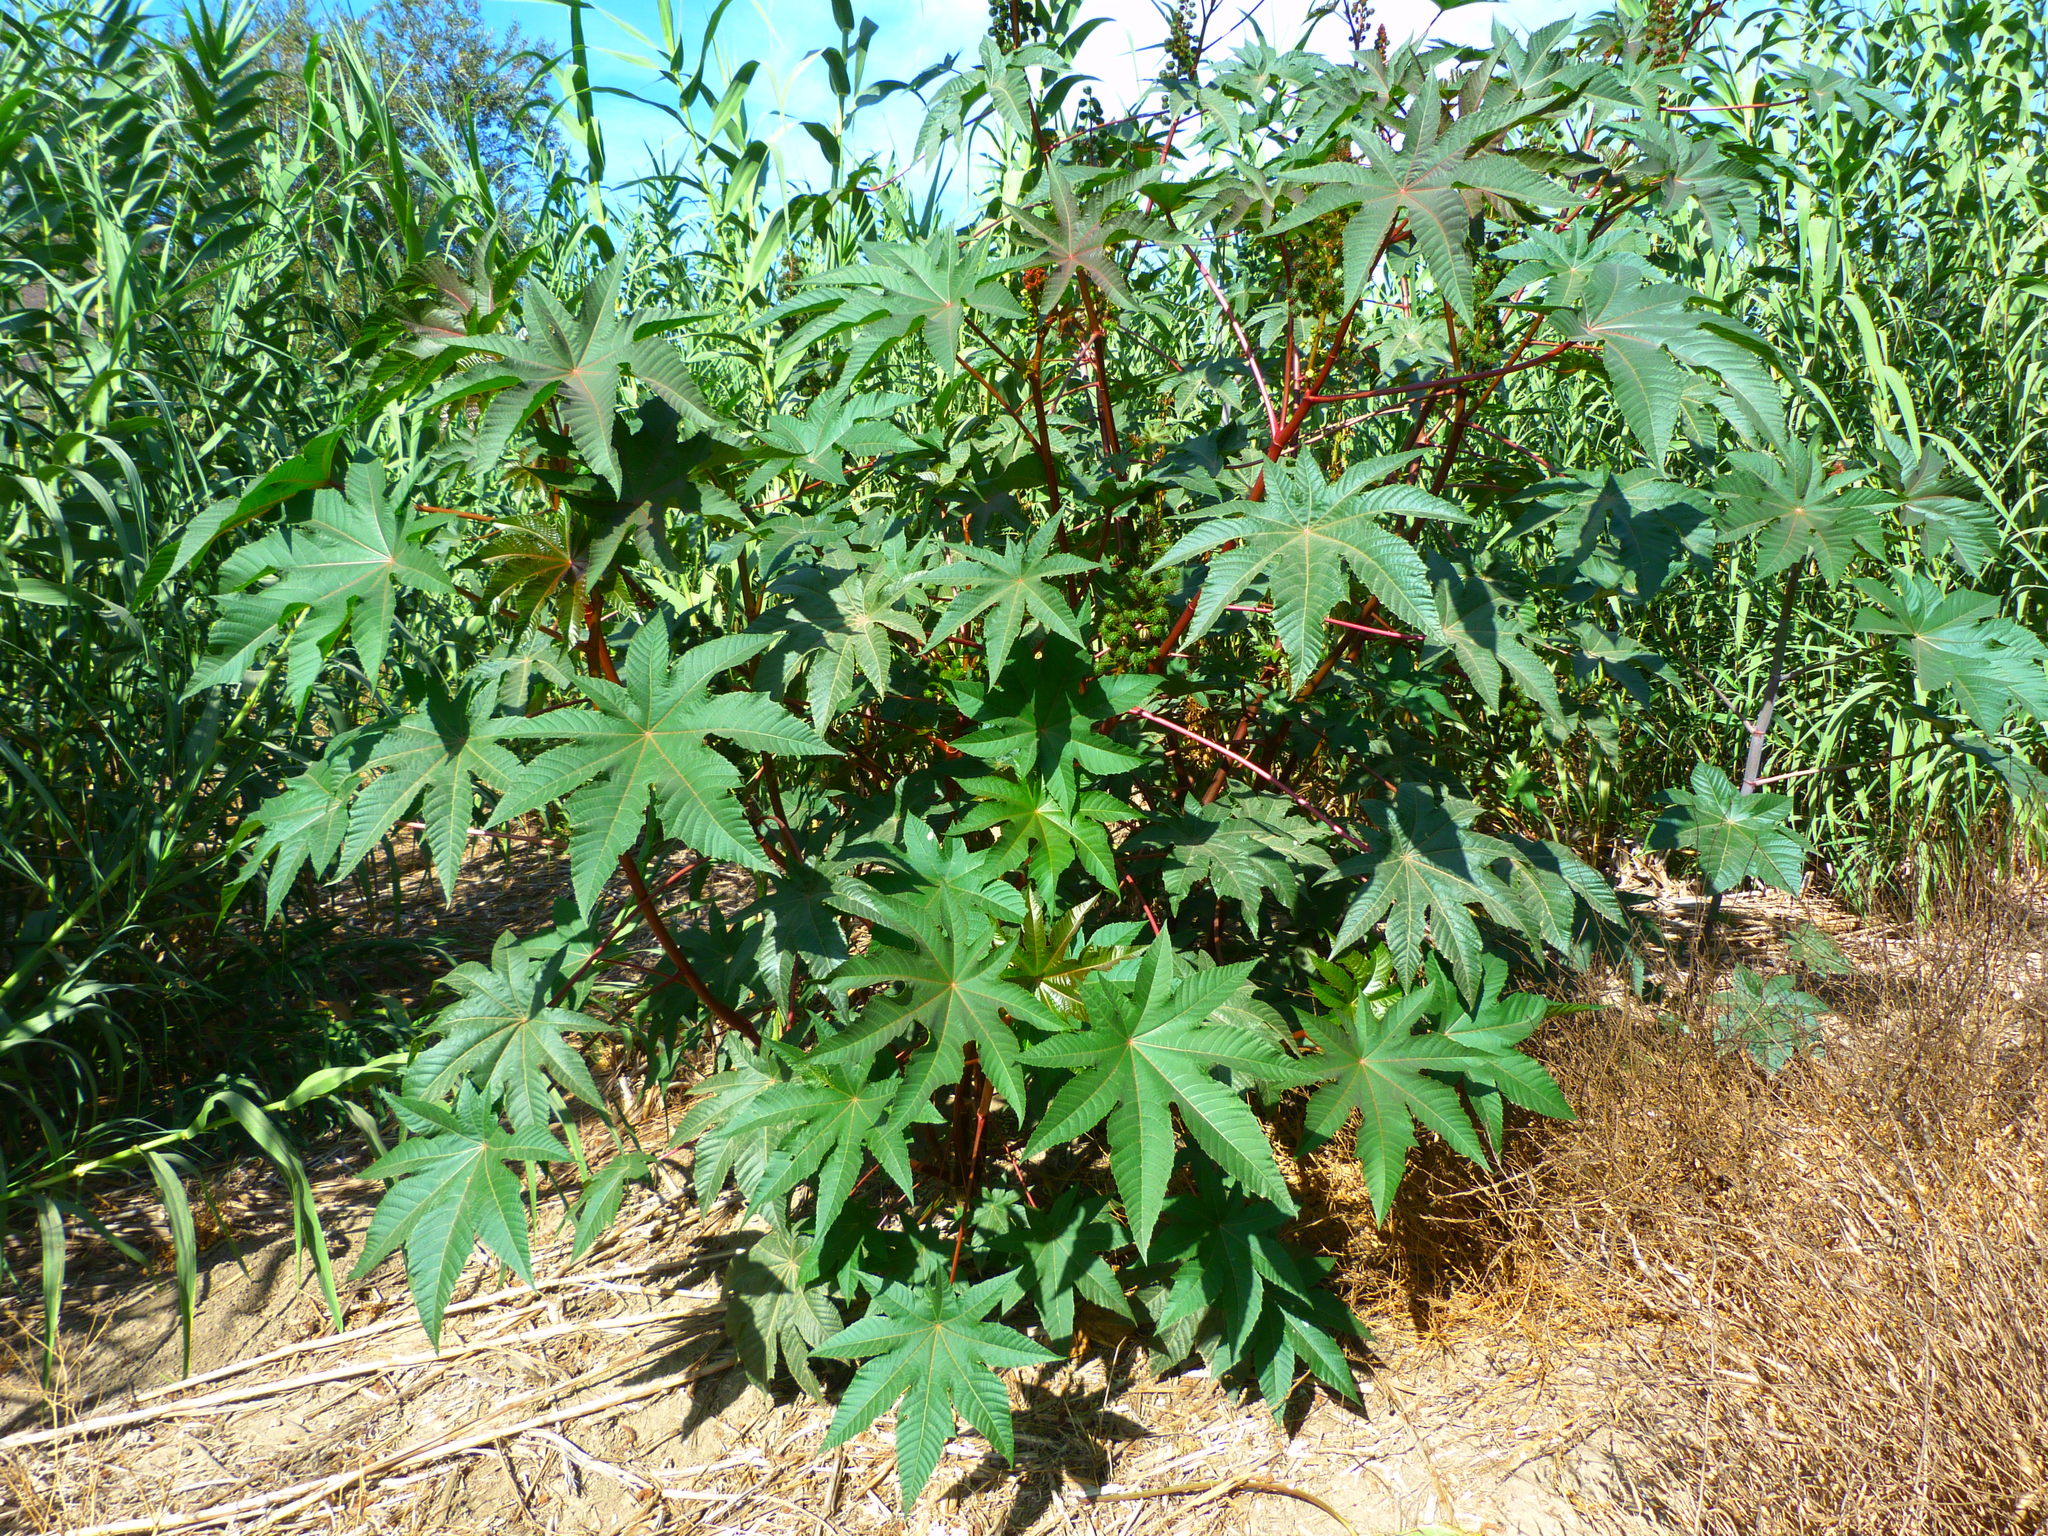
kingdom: Plantae
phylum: Tracheophyta
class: Magnoliopsida
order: Malpighiales
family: Euphorbiaceae
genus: Ricinus
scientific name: Ricinus communis
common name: Castor-oil-plant
